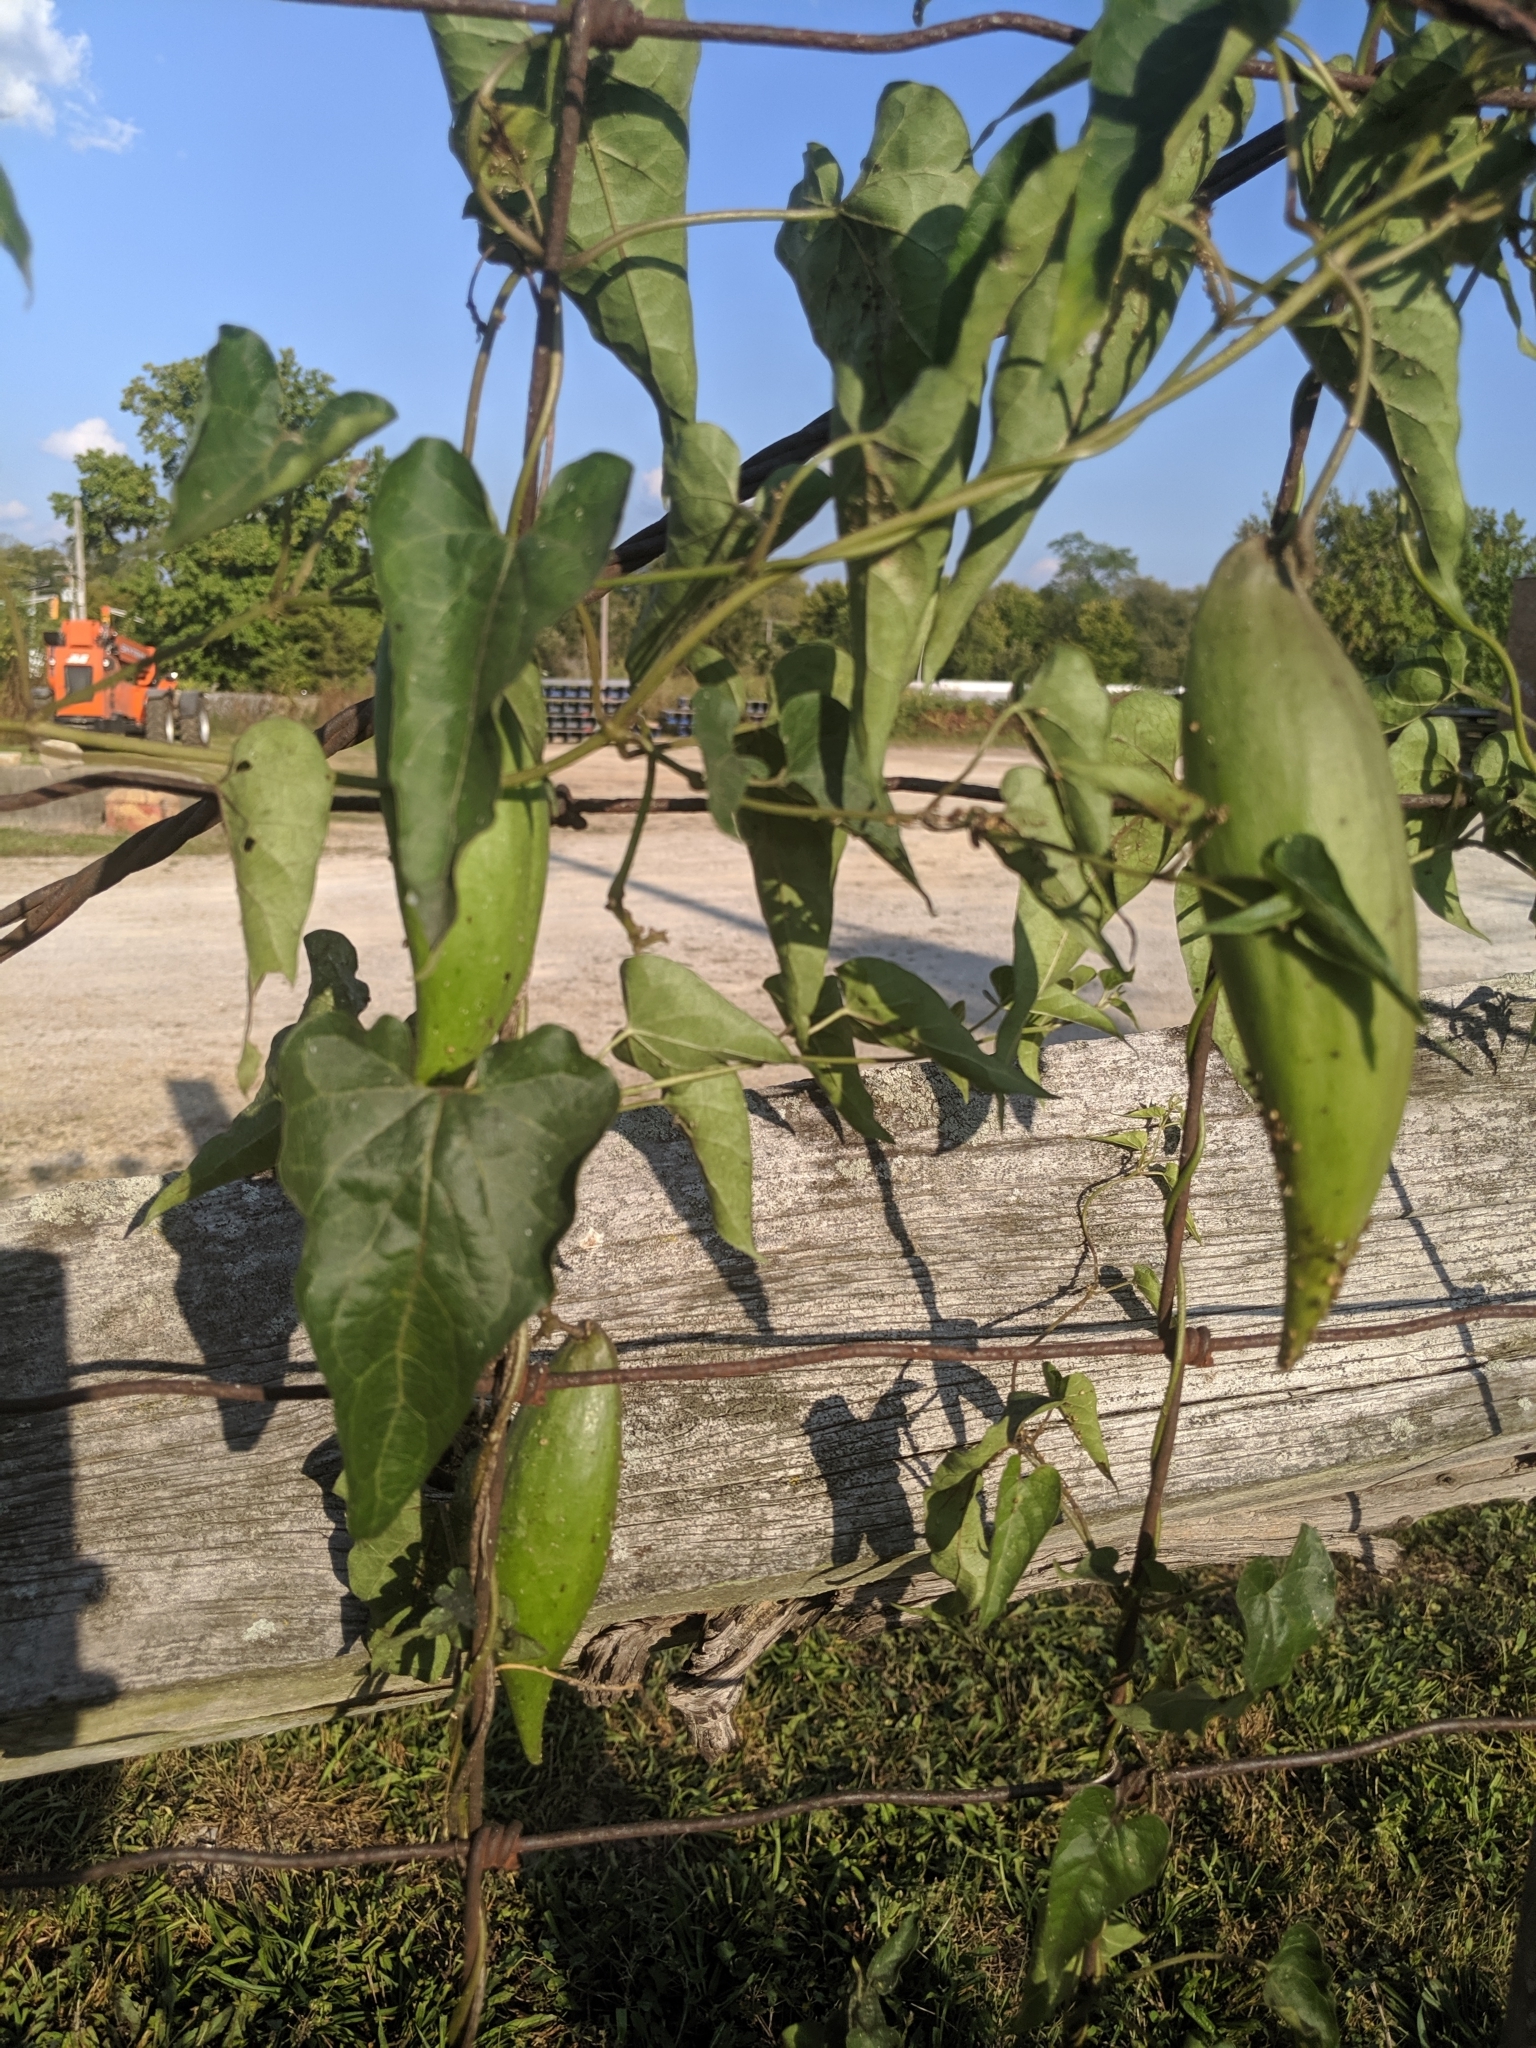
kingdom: Plantae
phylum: Tracheophyta
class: Magnoliopsida
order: Gentianales
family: Apocynaceae
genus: Cynanchum
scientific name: Cynanchum laeve
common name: Sandvine
